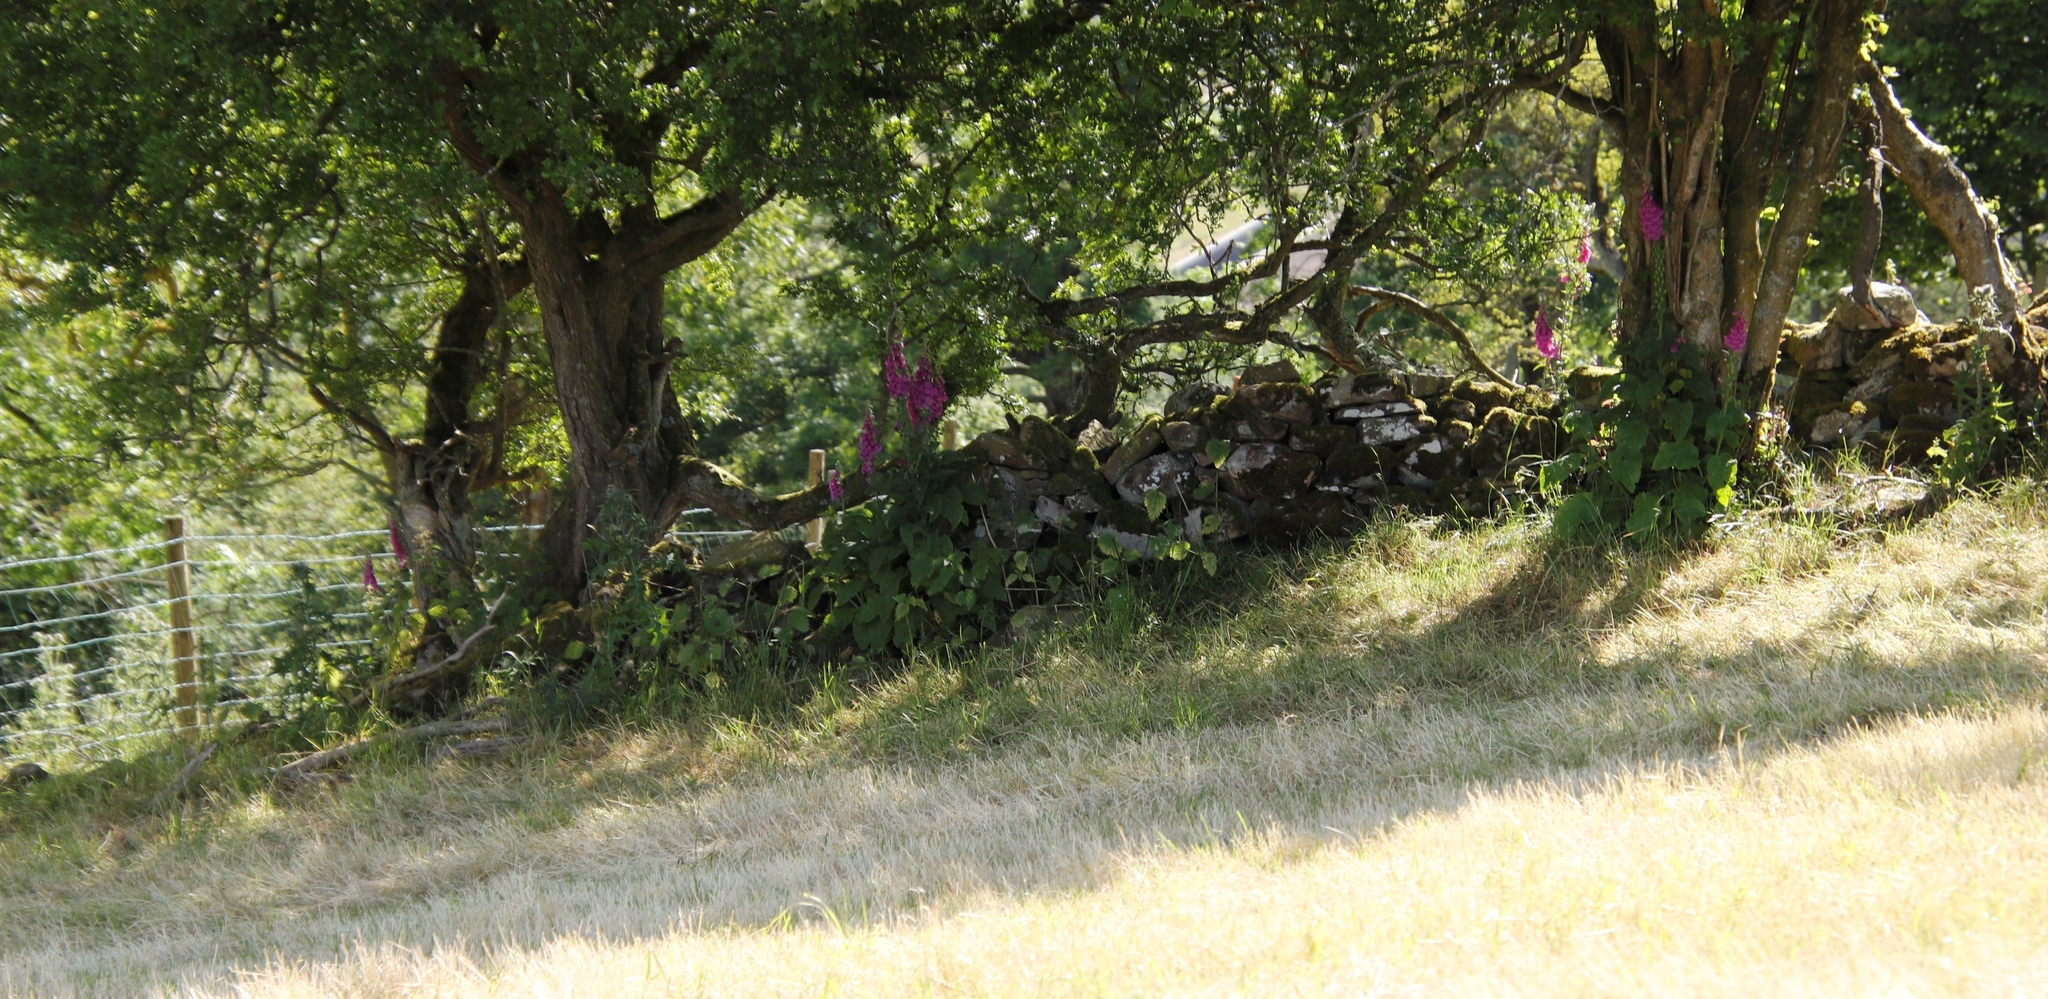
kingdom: Plantae
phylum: Tracheophyta
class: Magnoliopsida
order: Lamiales
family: Plantaginaceae
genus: Digitalis
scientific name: Digitalis purpurea
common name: Foxglove
